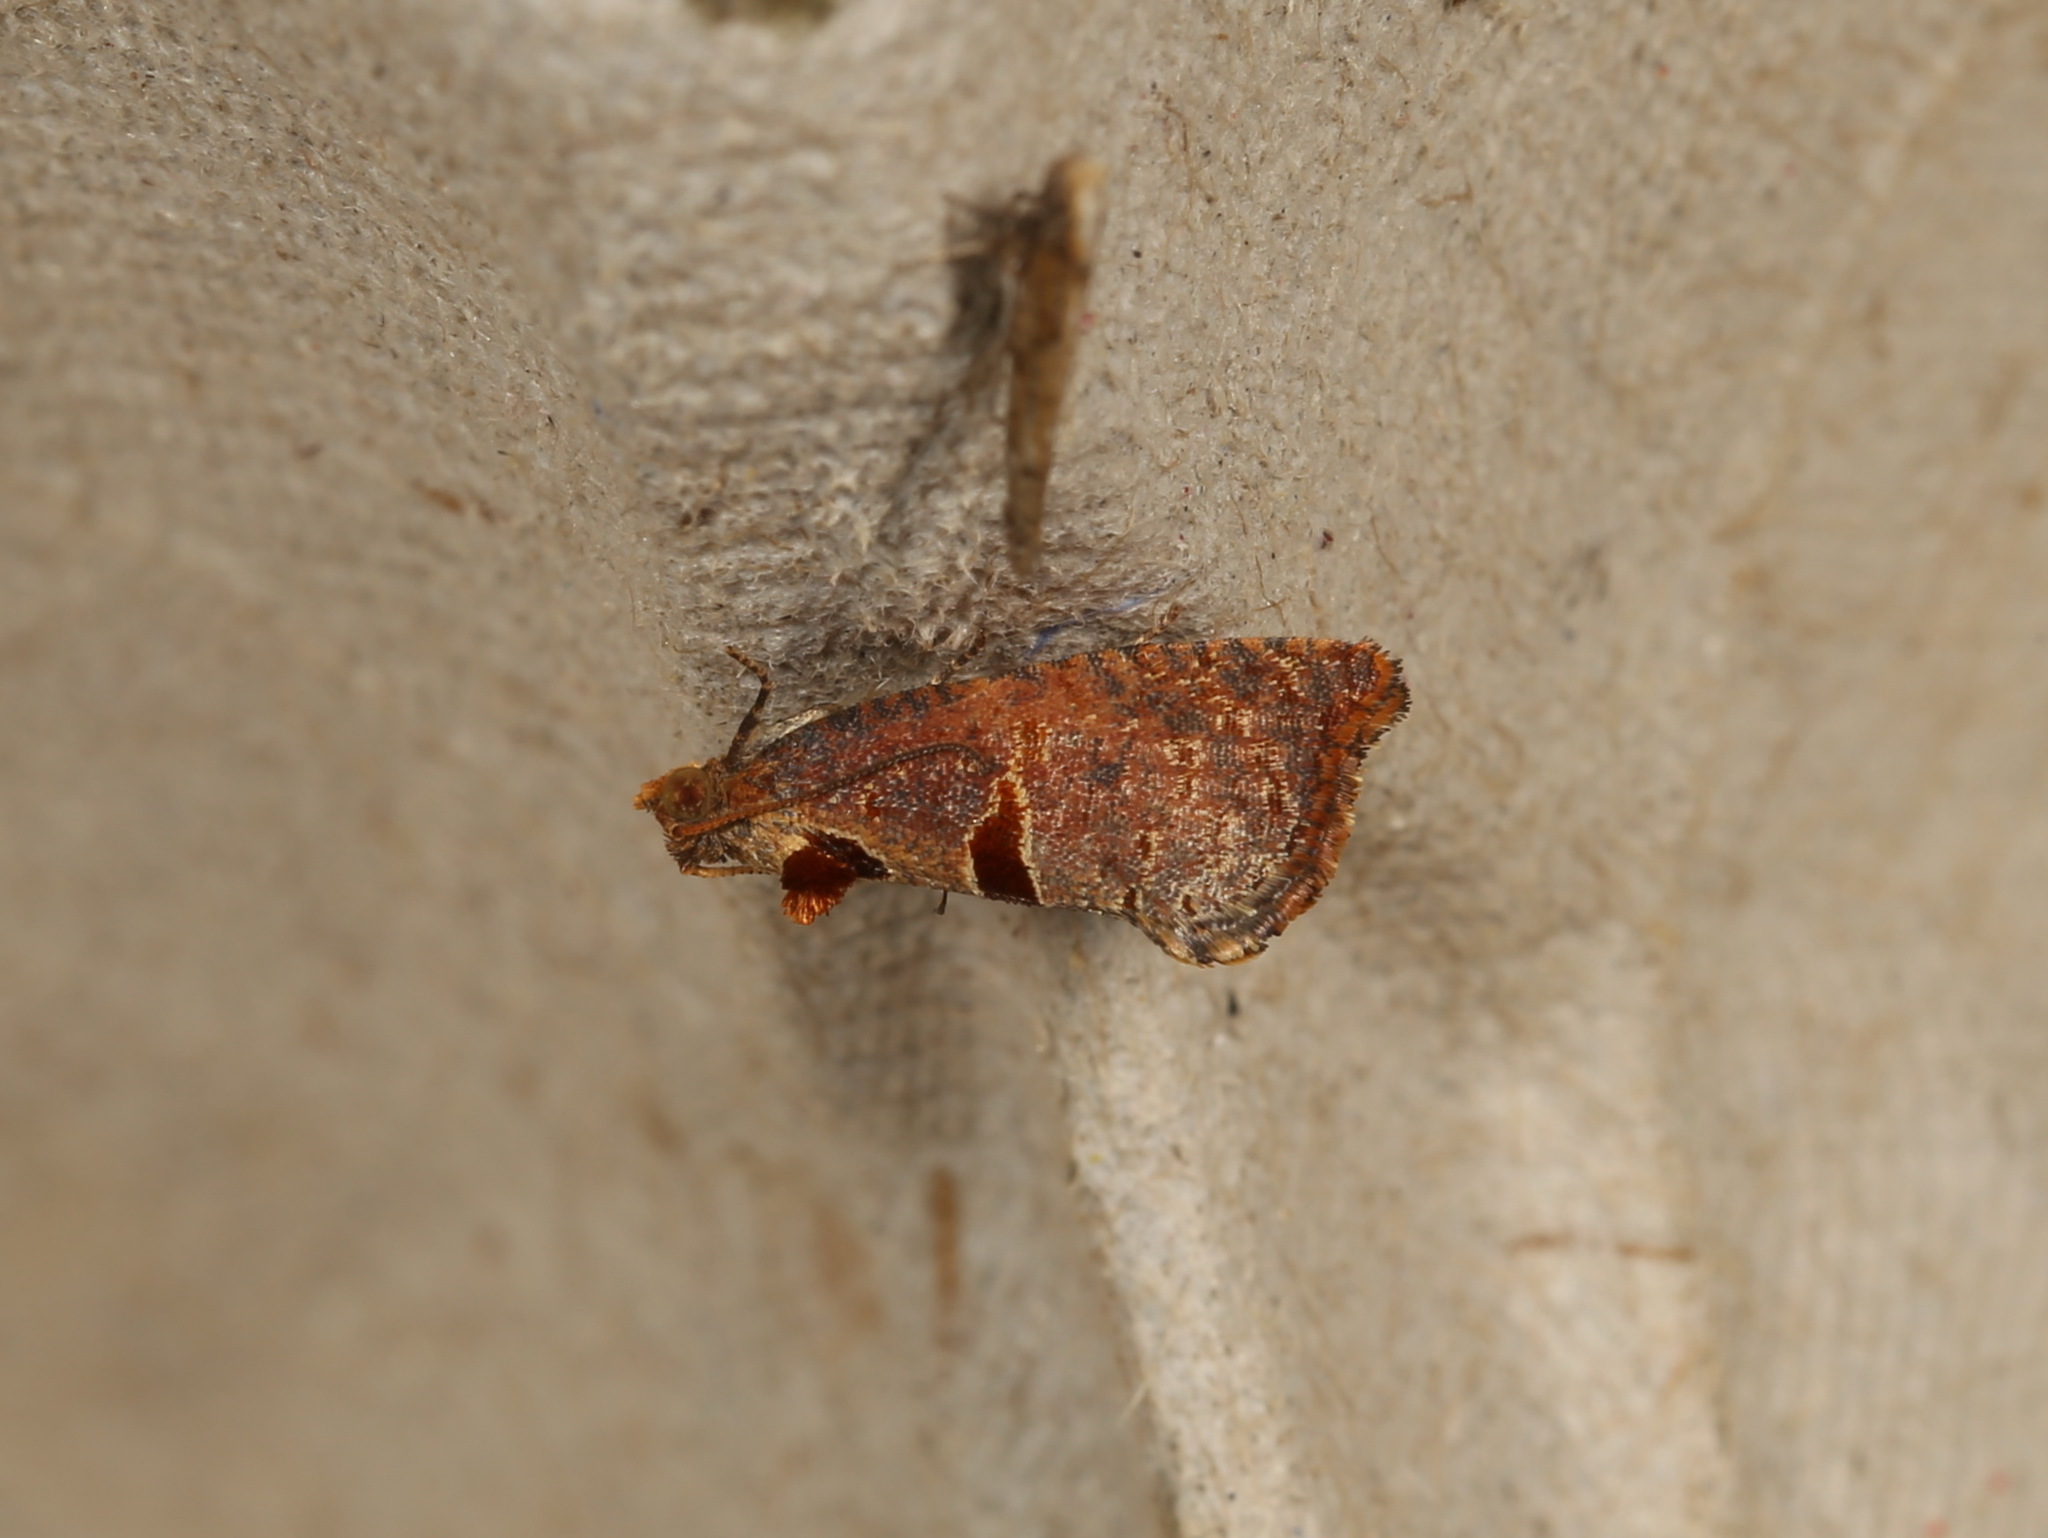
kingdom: Animalia
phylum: Arthropoda
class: Insecta
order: Lepidoptera
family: Tortricidae
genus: Glyphidoptera
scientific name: Glyphidoptera insignana
